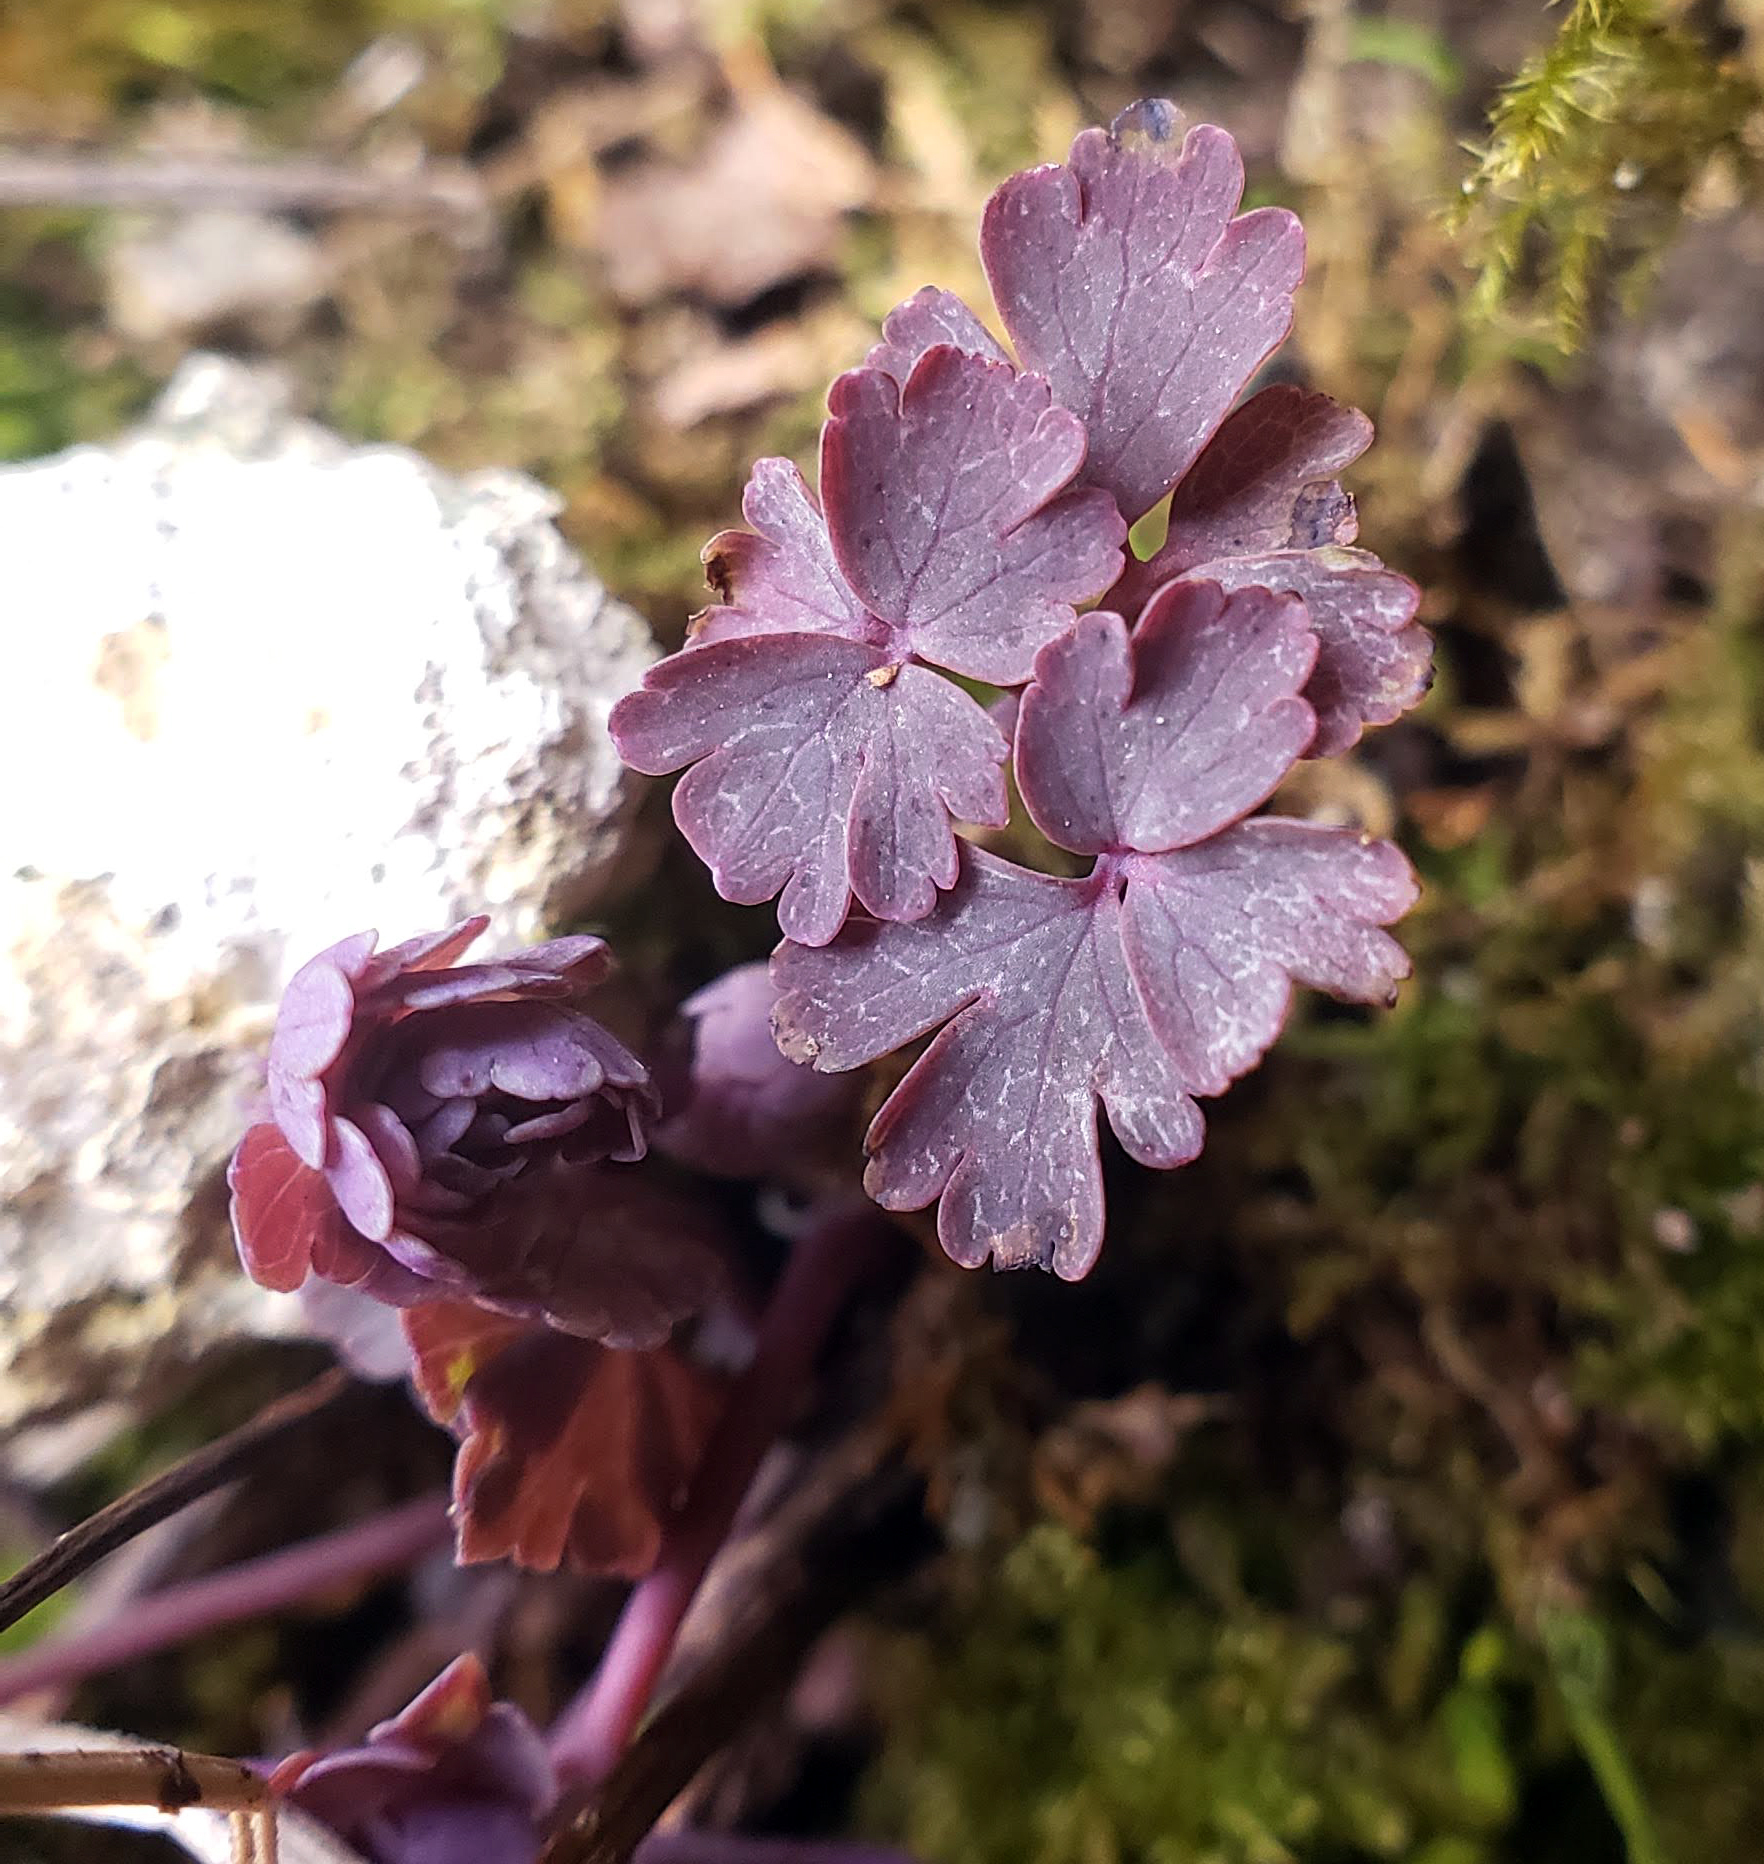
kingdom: Plantae
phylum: Tracheophyta
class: Magnoliopsida
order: Ranunculales
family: Ranunculaceae
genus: Aquilegia
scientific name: Aquilegia canadensis
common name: American columbine
